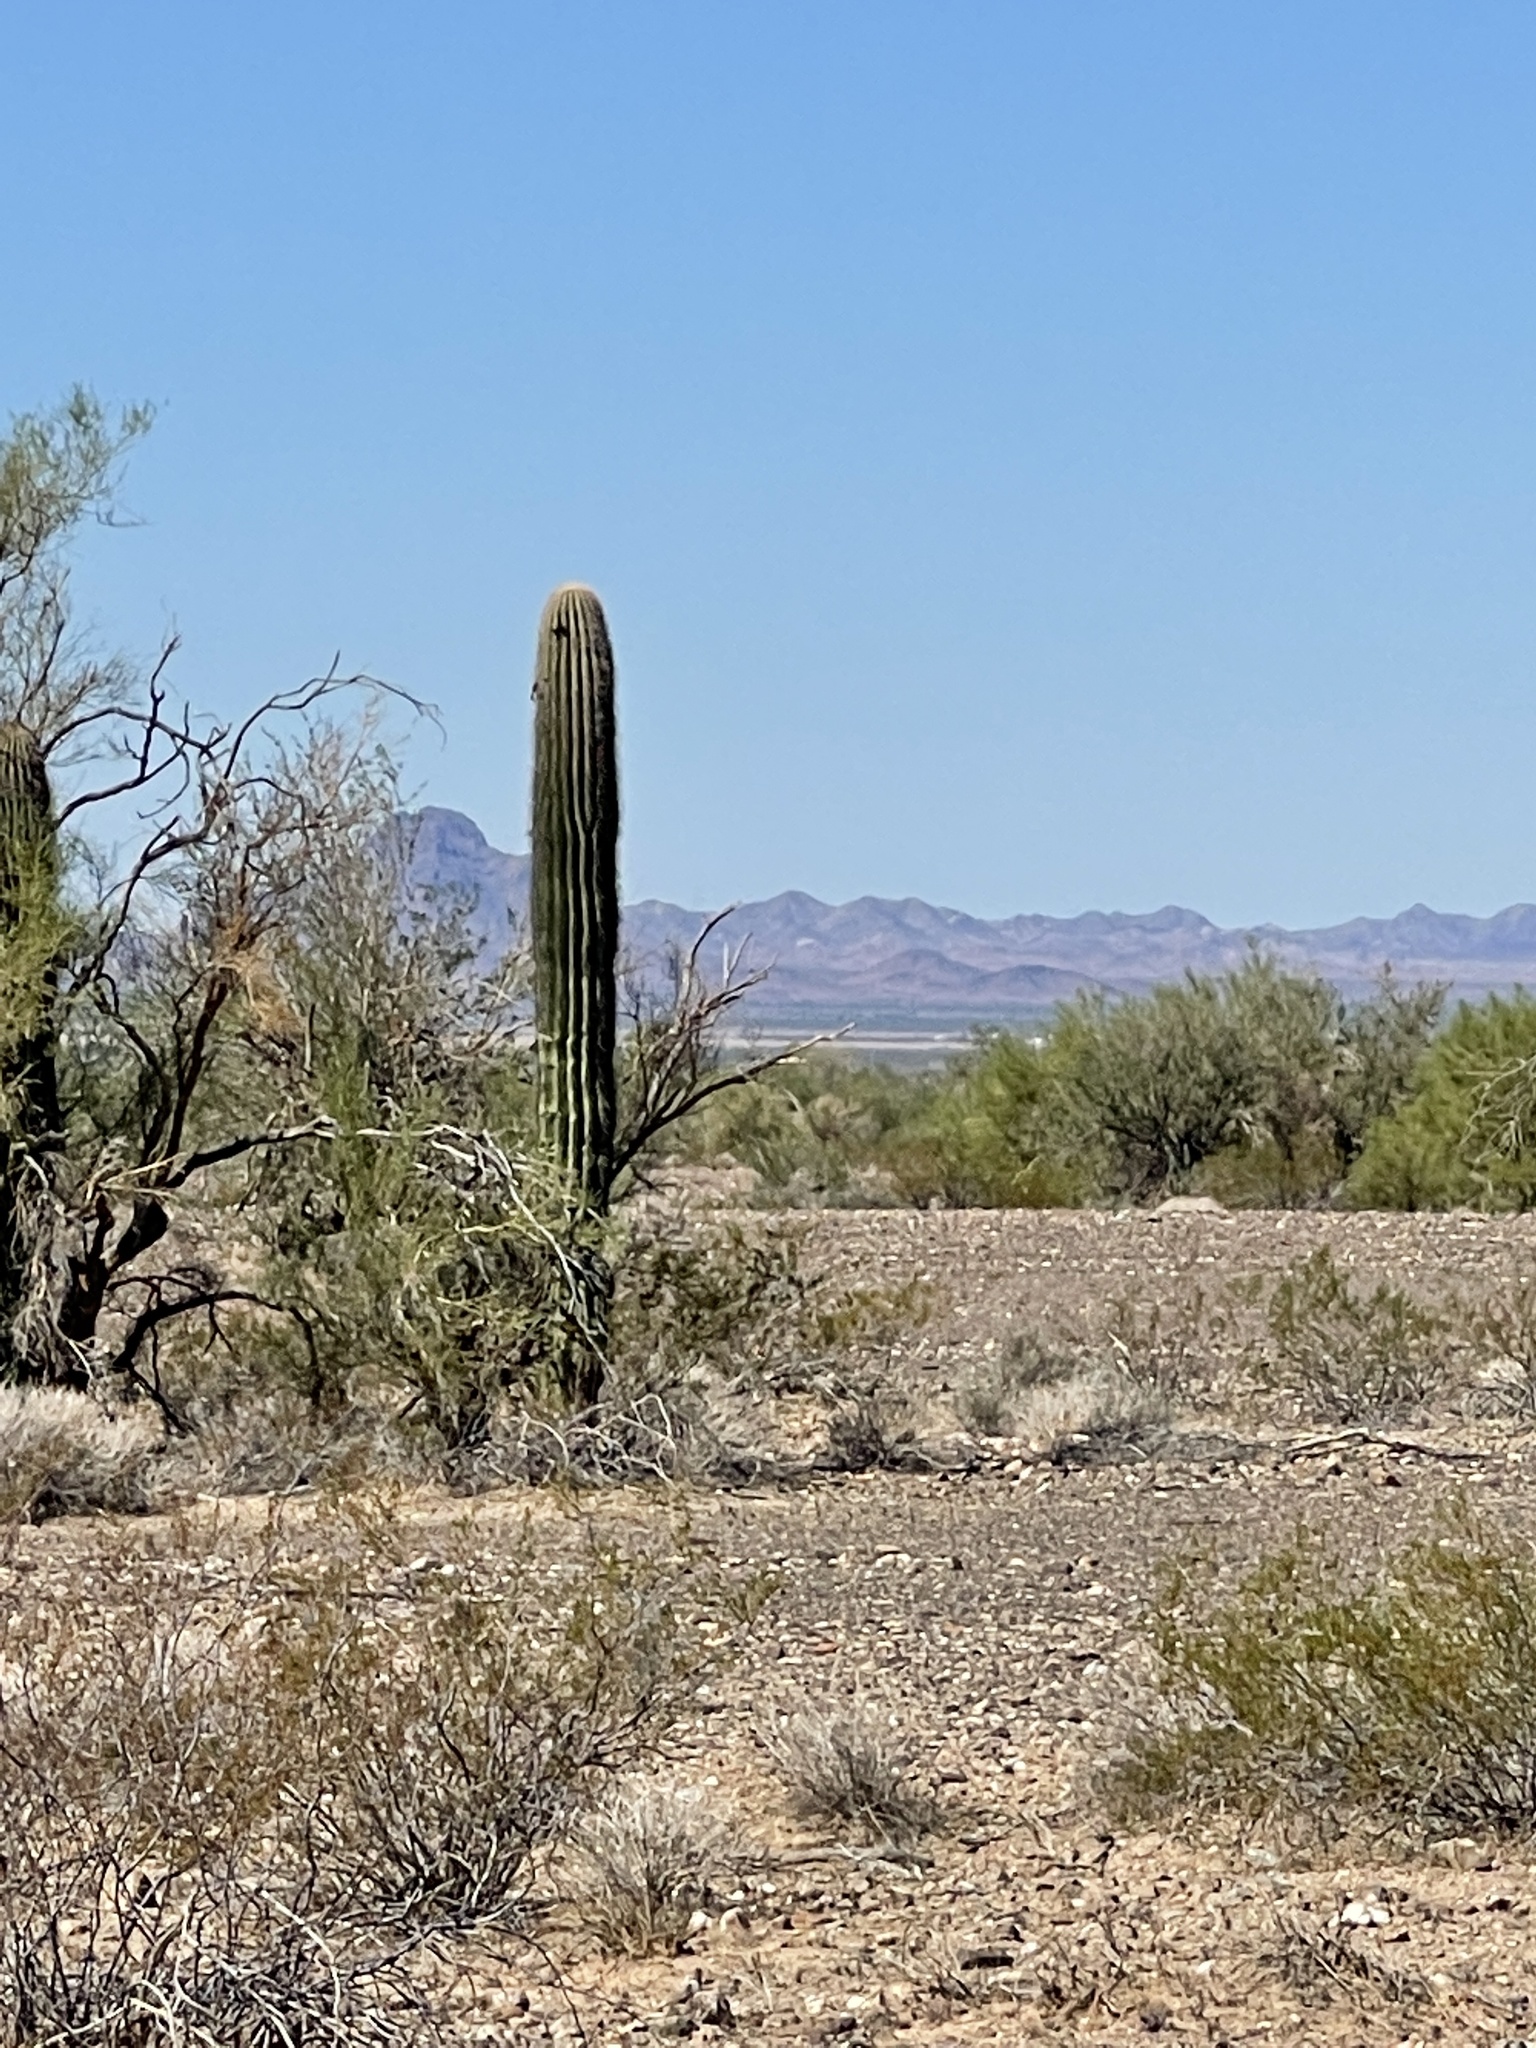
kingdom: Plantae
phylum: Tracheophyta
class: Magnoliopsida
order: Caryophyllales
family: Cactaceae
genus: Carnegiea
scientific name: Carnegiea gigantea
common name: Saguaro
